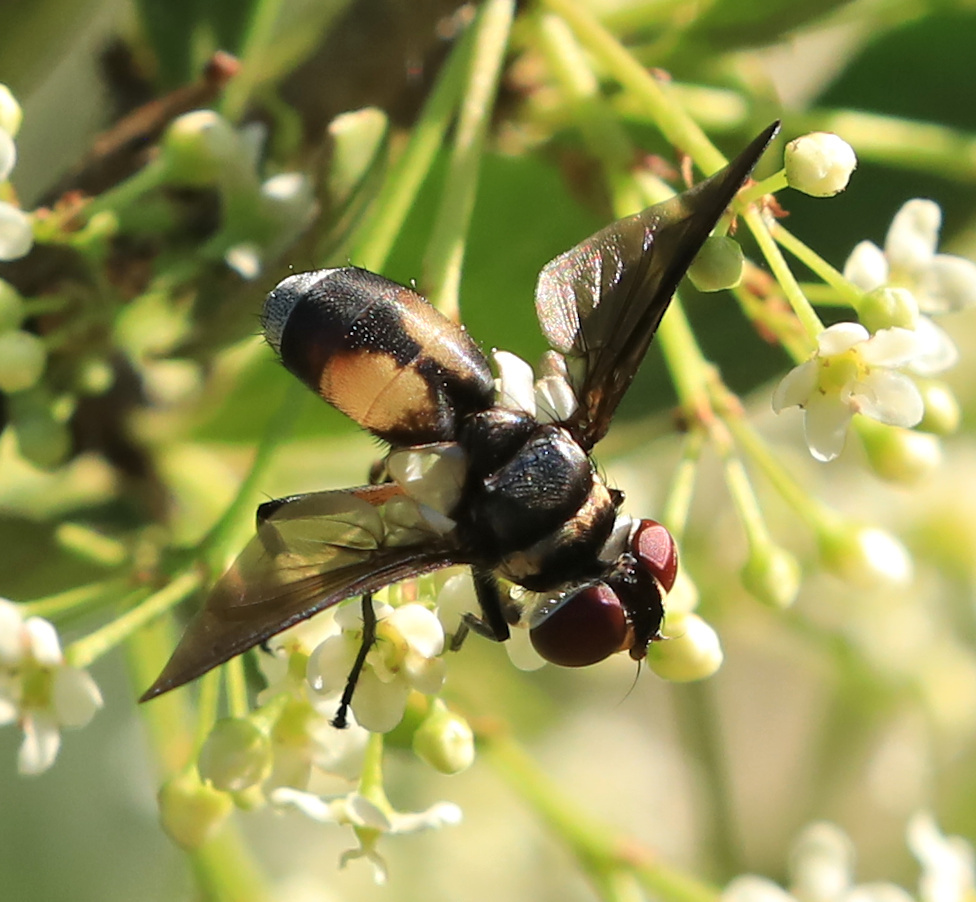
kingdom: Animalia
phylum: Arthropoda
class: Insecta
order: Diptera
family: Tachinidae
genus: Bogosia
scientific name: Bogosia bequaerti
